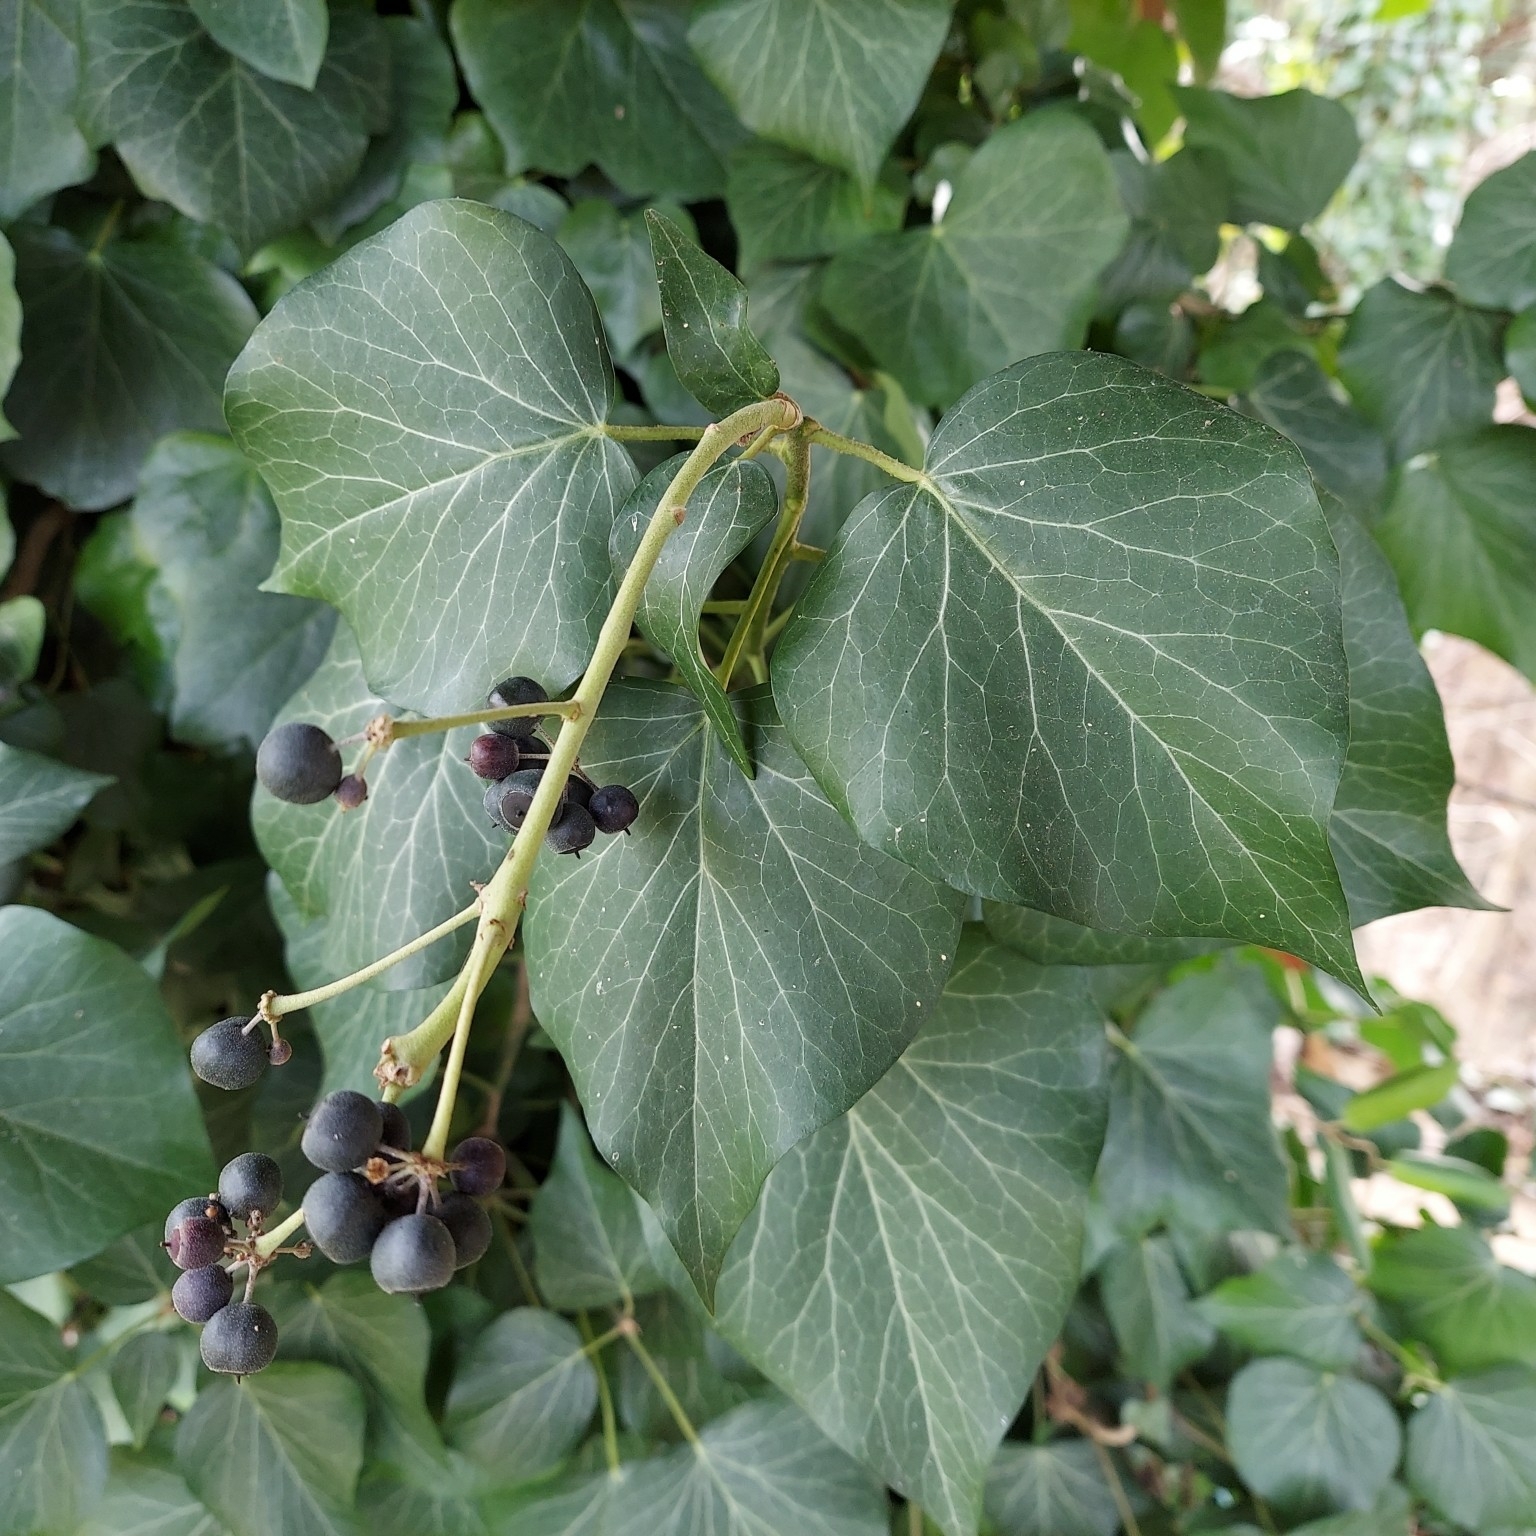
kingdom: Plantae
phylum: Tracheophyta
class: Magnoliopsida
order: Apiales
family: Araliaceae
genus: Hedera
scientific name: Hedera helix
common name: Ivy
